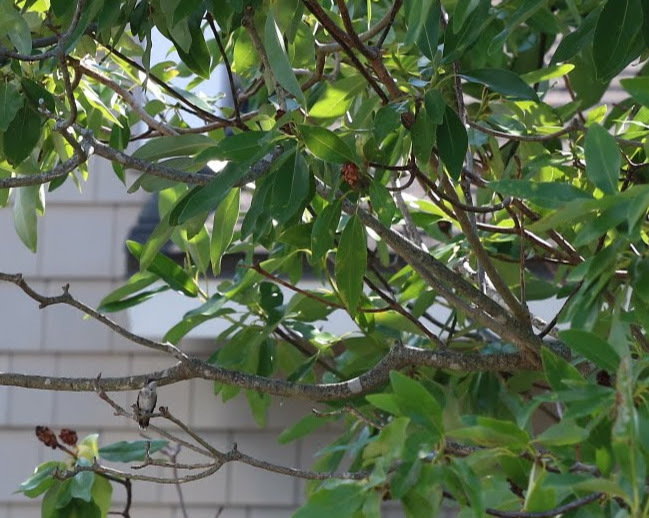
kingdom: Animalia
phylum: Chordata
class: Aves
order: Apodiformes
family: Trochilidae
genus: Archilochus
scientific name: Archilochus colubris
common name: Ruby-throated hummingbird
